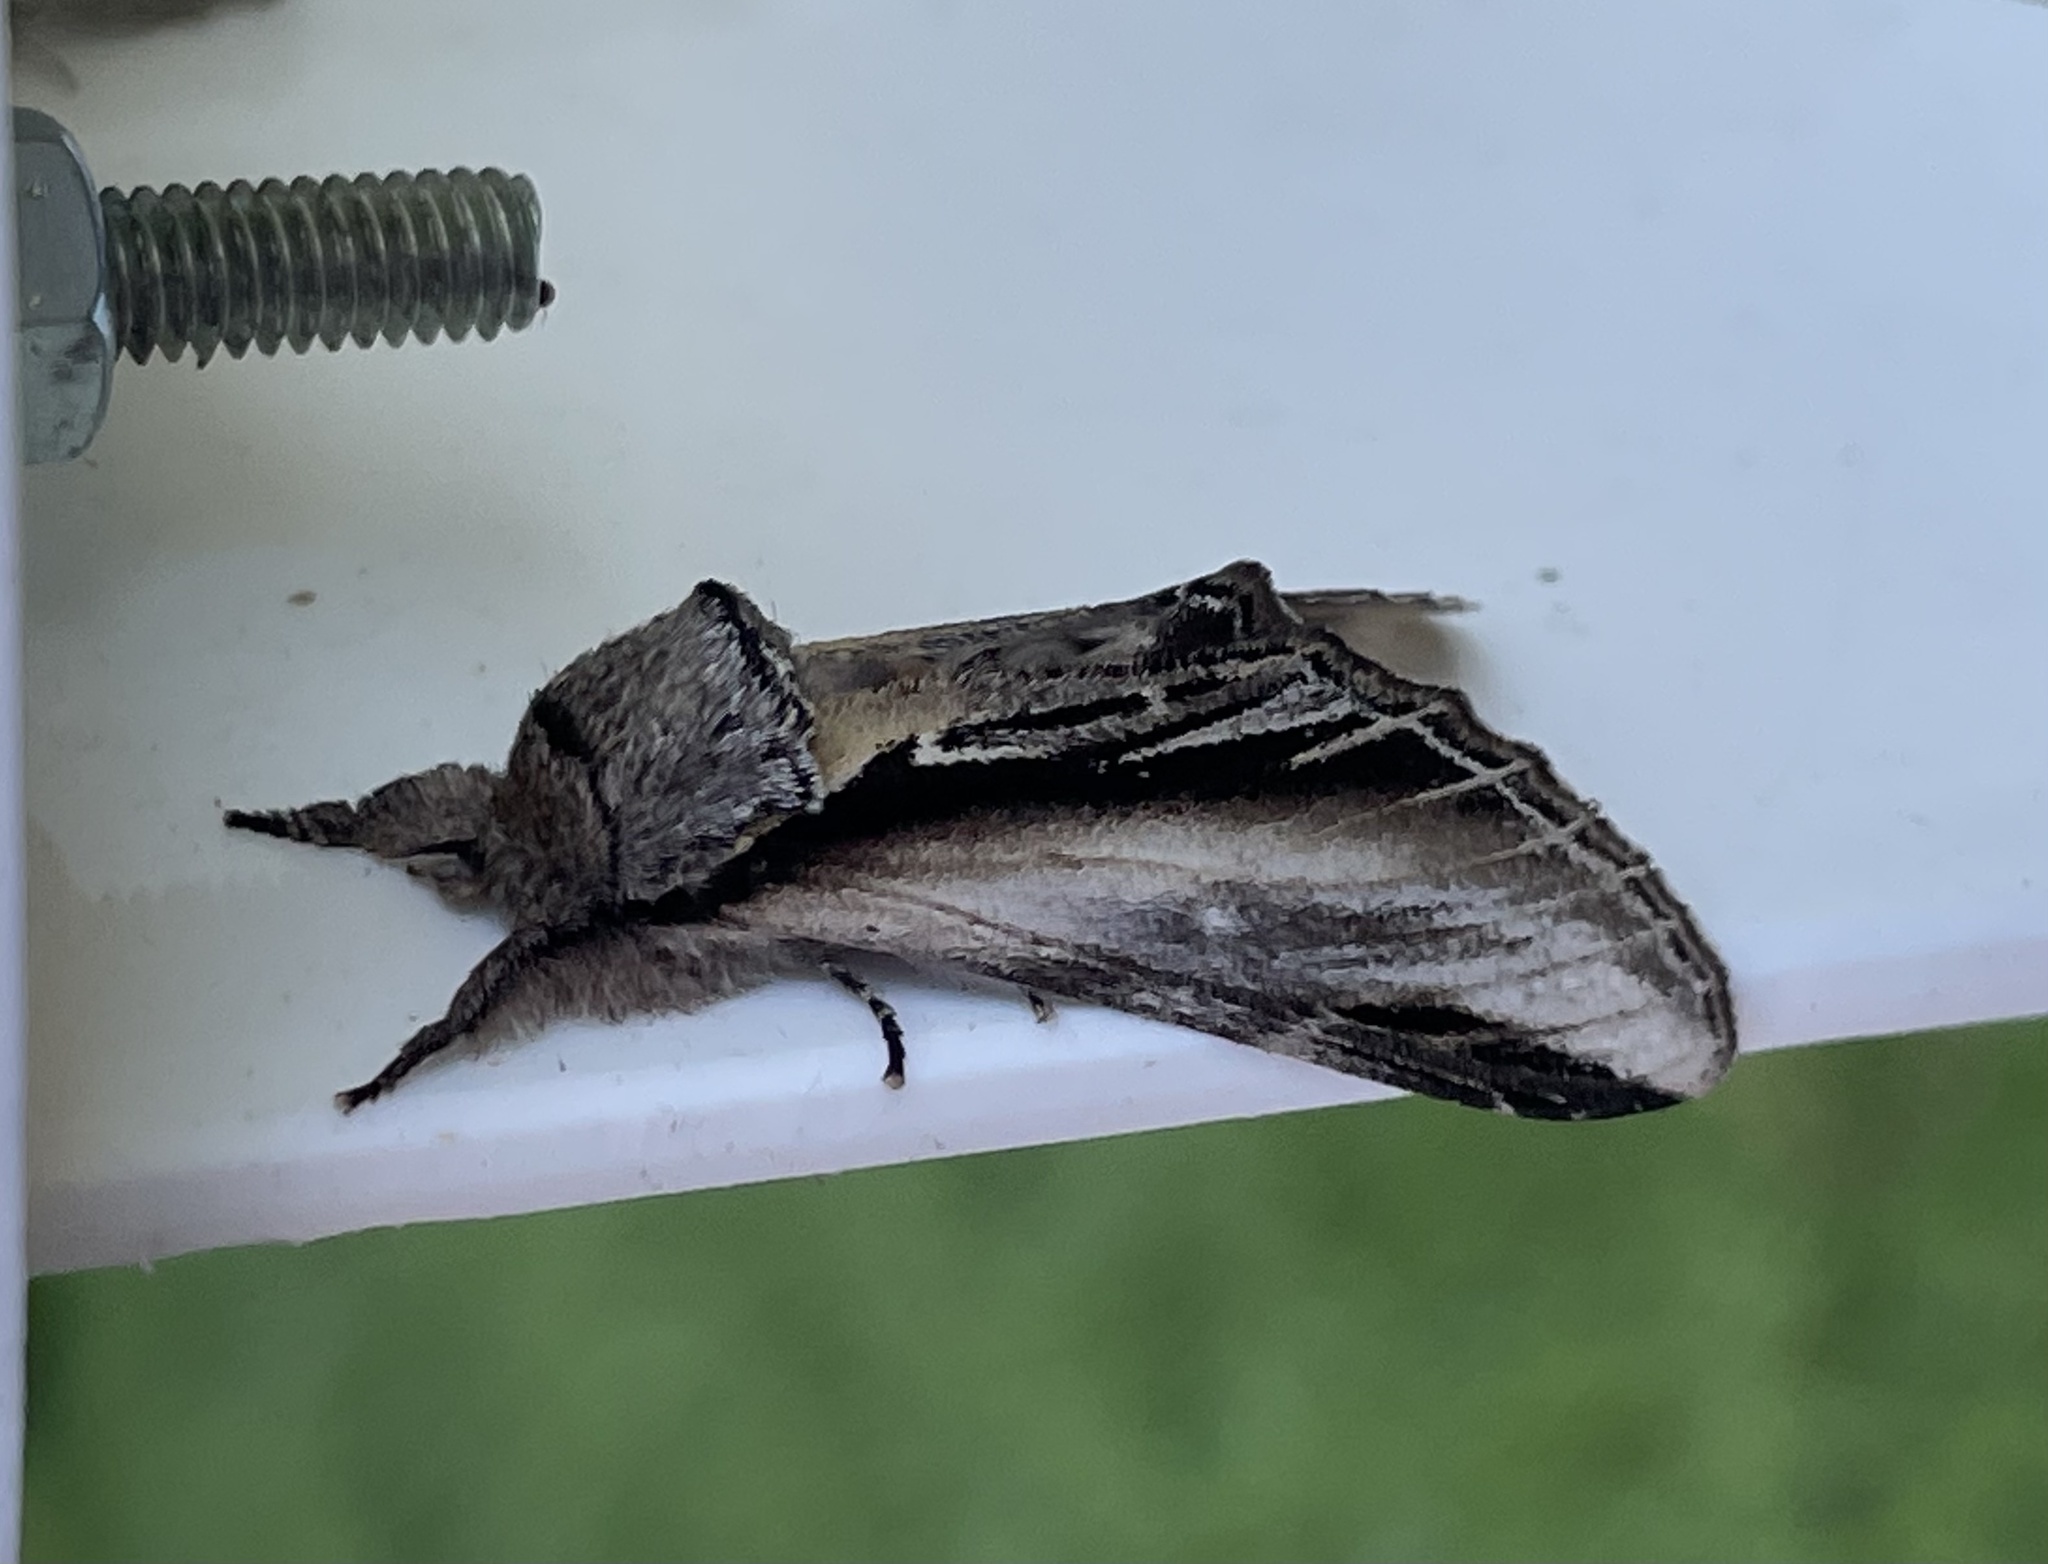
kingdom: Animalia
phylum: Arthropoda
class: Insecta
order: Lepidoptera
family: Notodontidae
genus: Pheosia
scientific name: Pheosia tremula
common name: Swallow prominent
